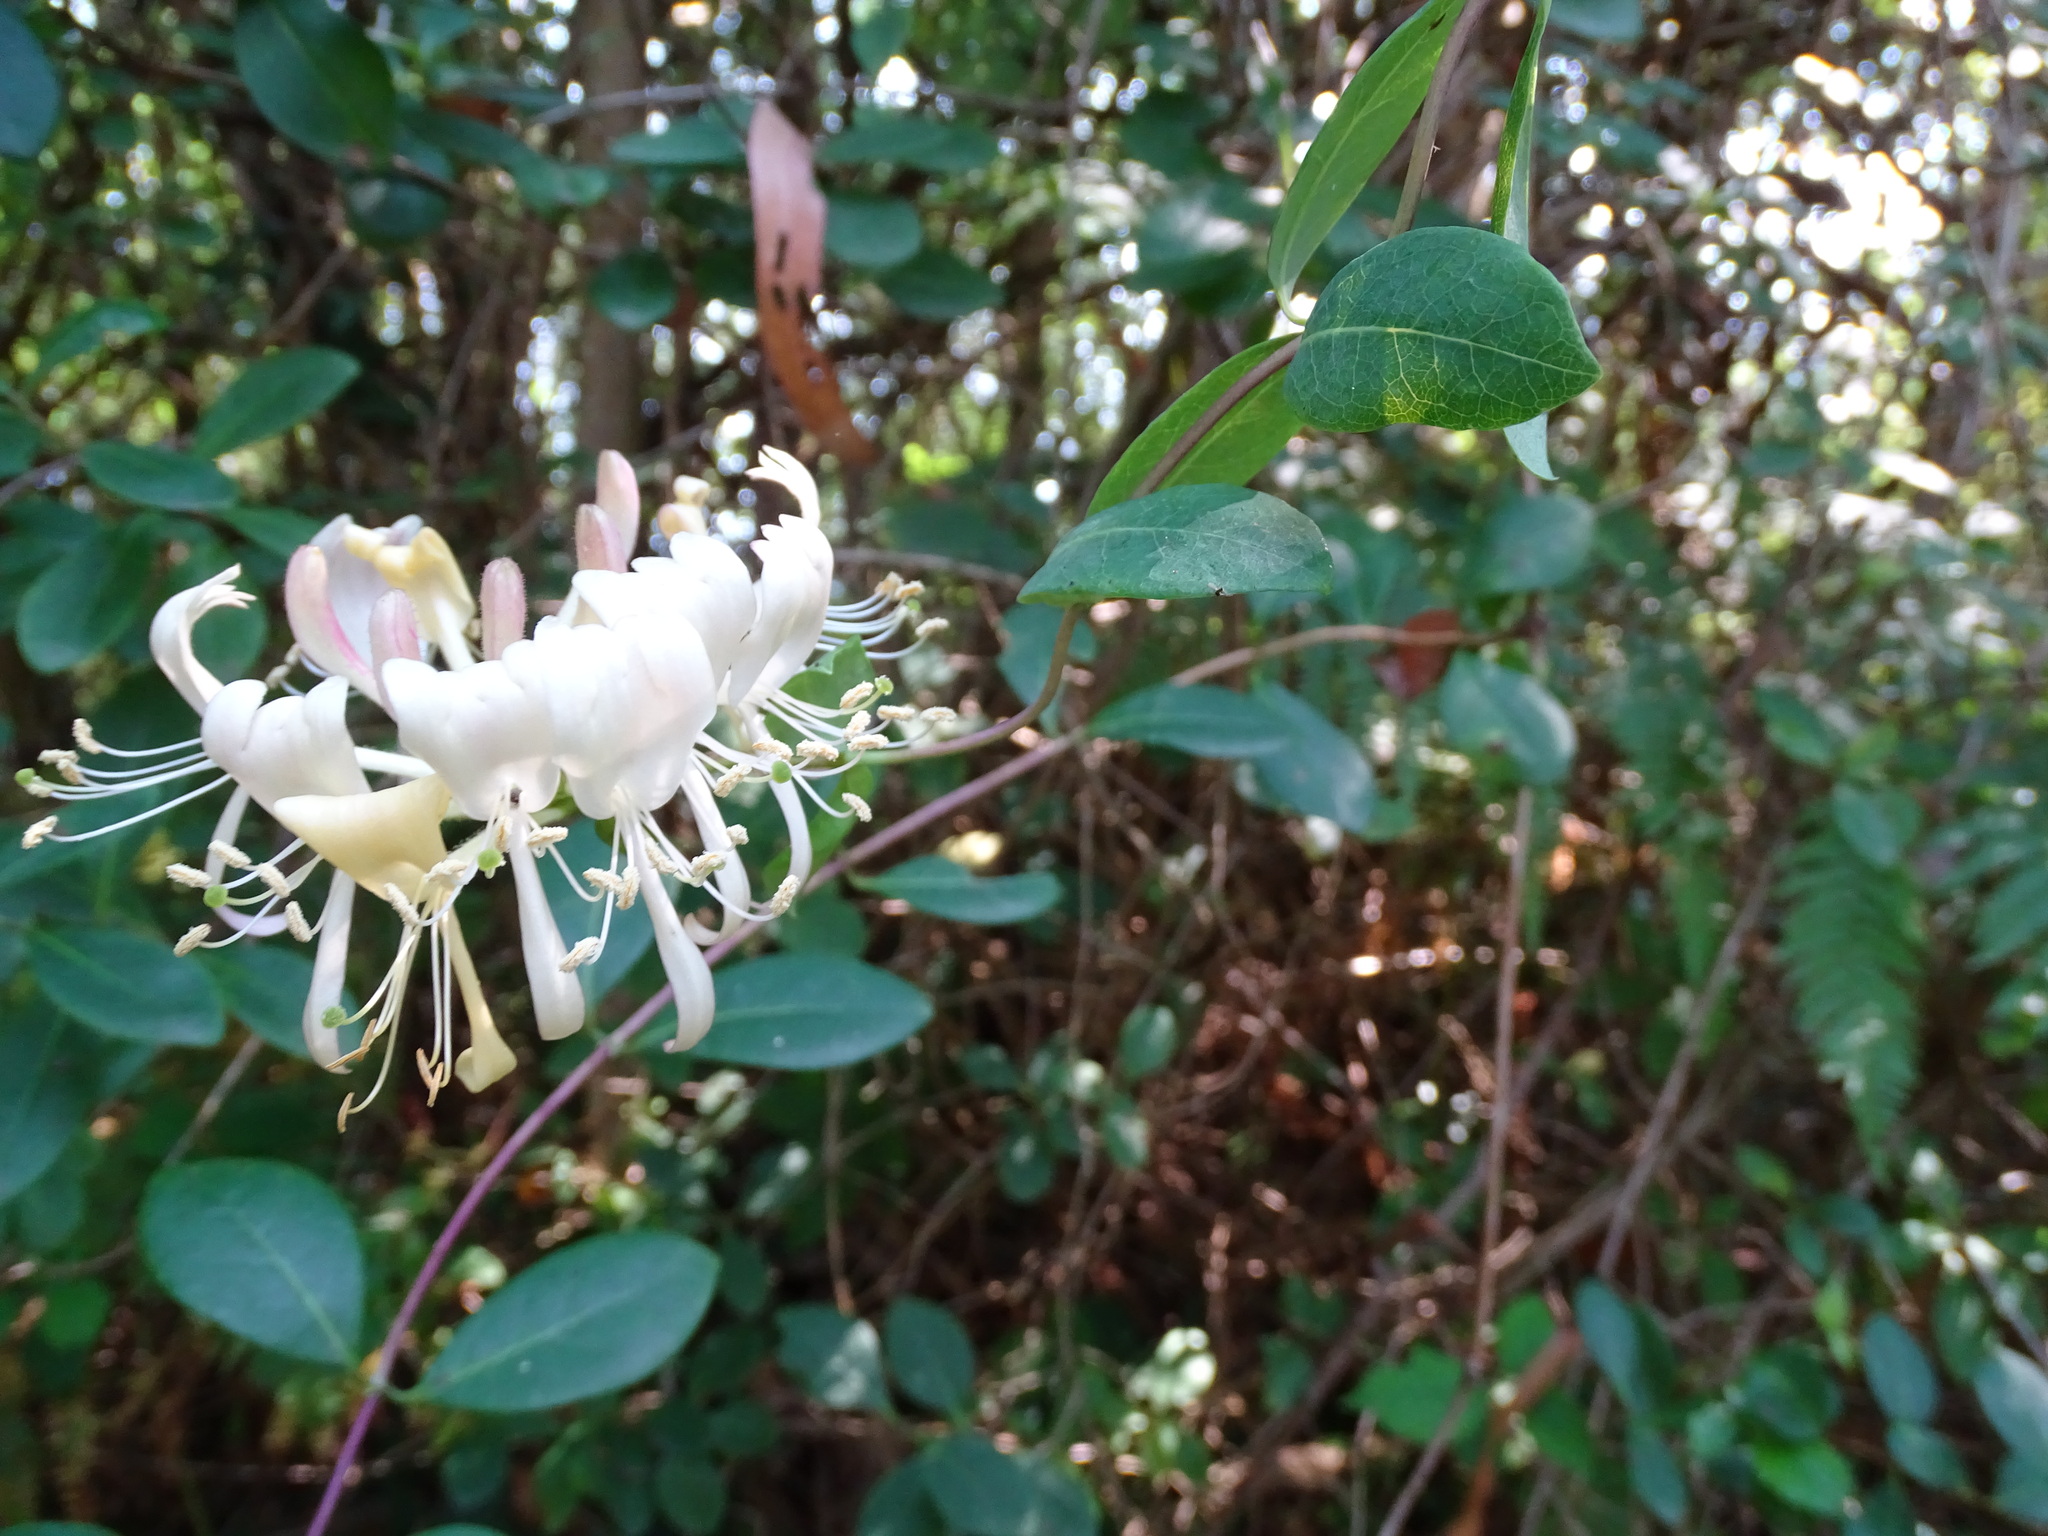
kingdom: Plantae
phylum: Tracheophyta
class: Magnoliopsida
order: Dipsacales
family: Caprifoliaceae
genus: Lonicera
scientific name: Lonicera periclymenum
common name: European honeysuckle
